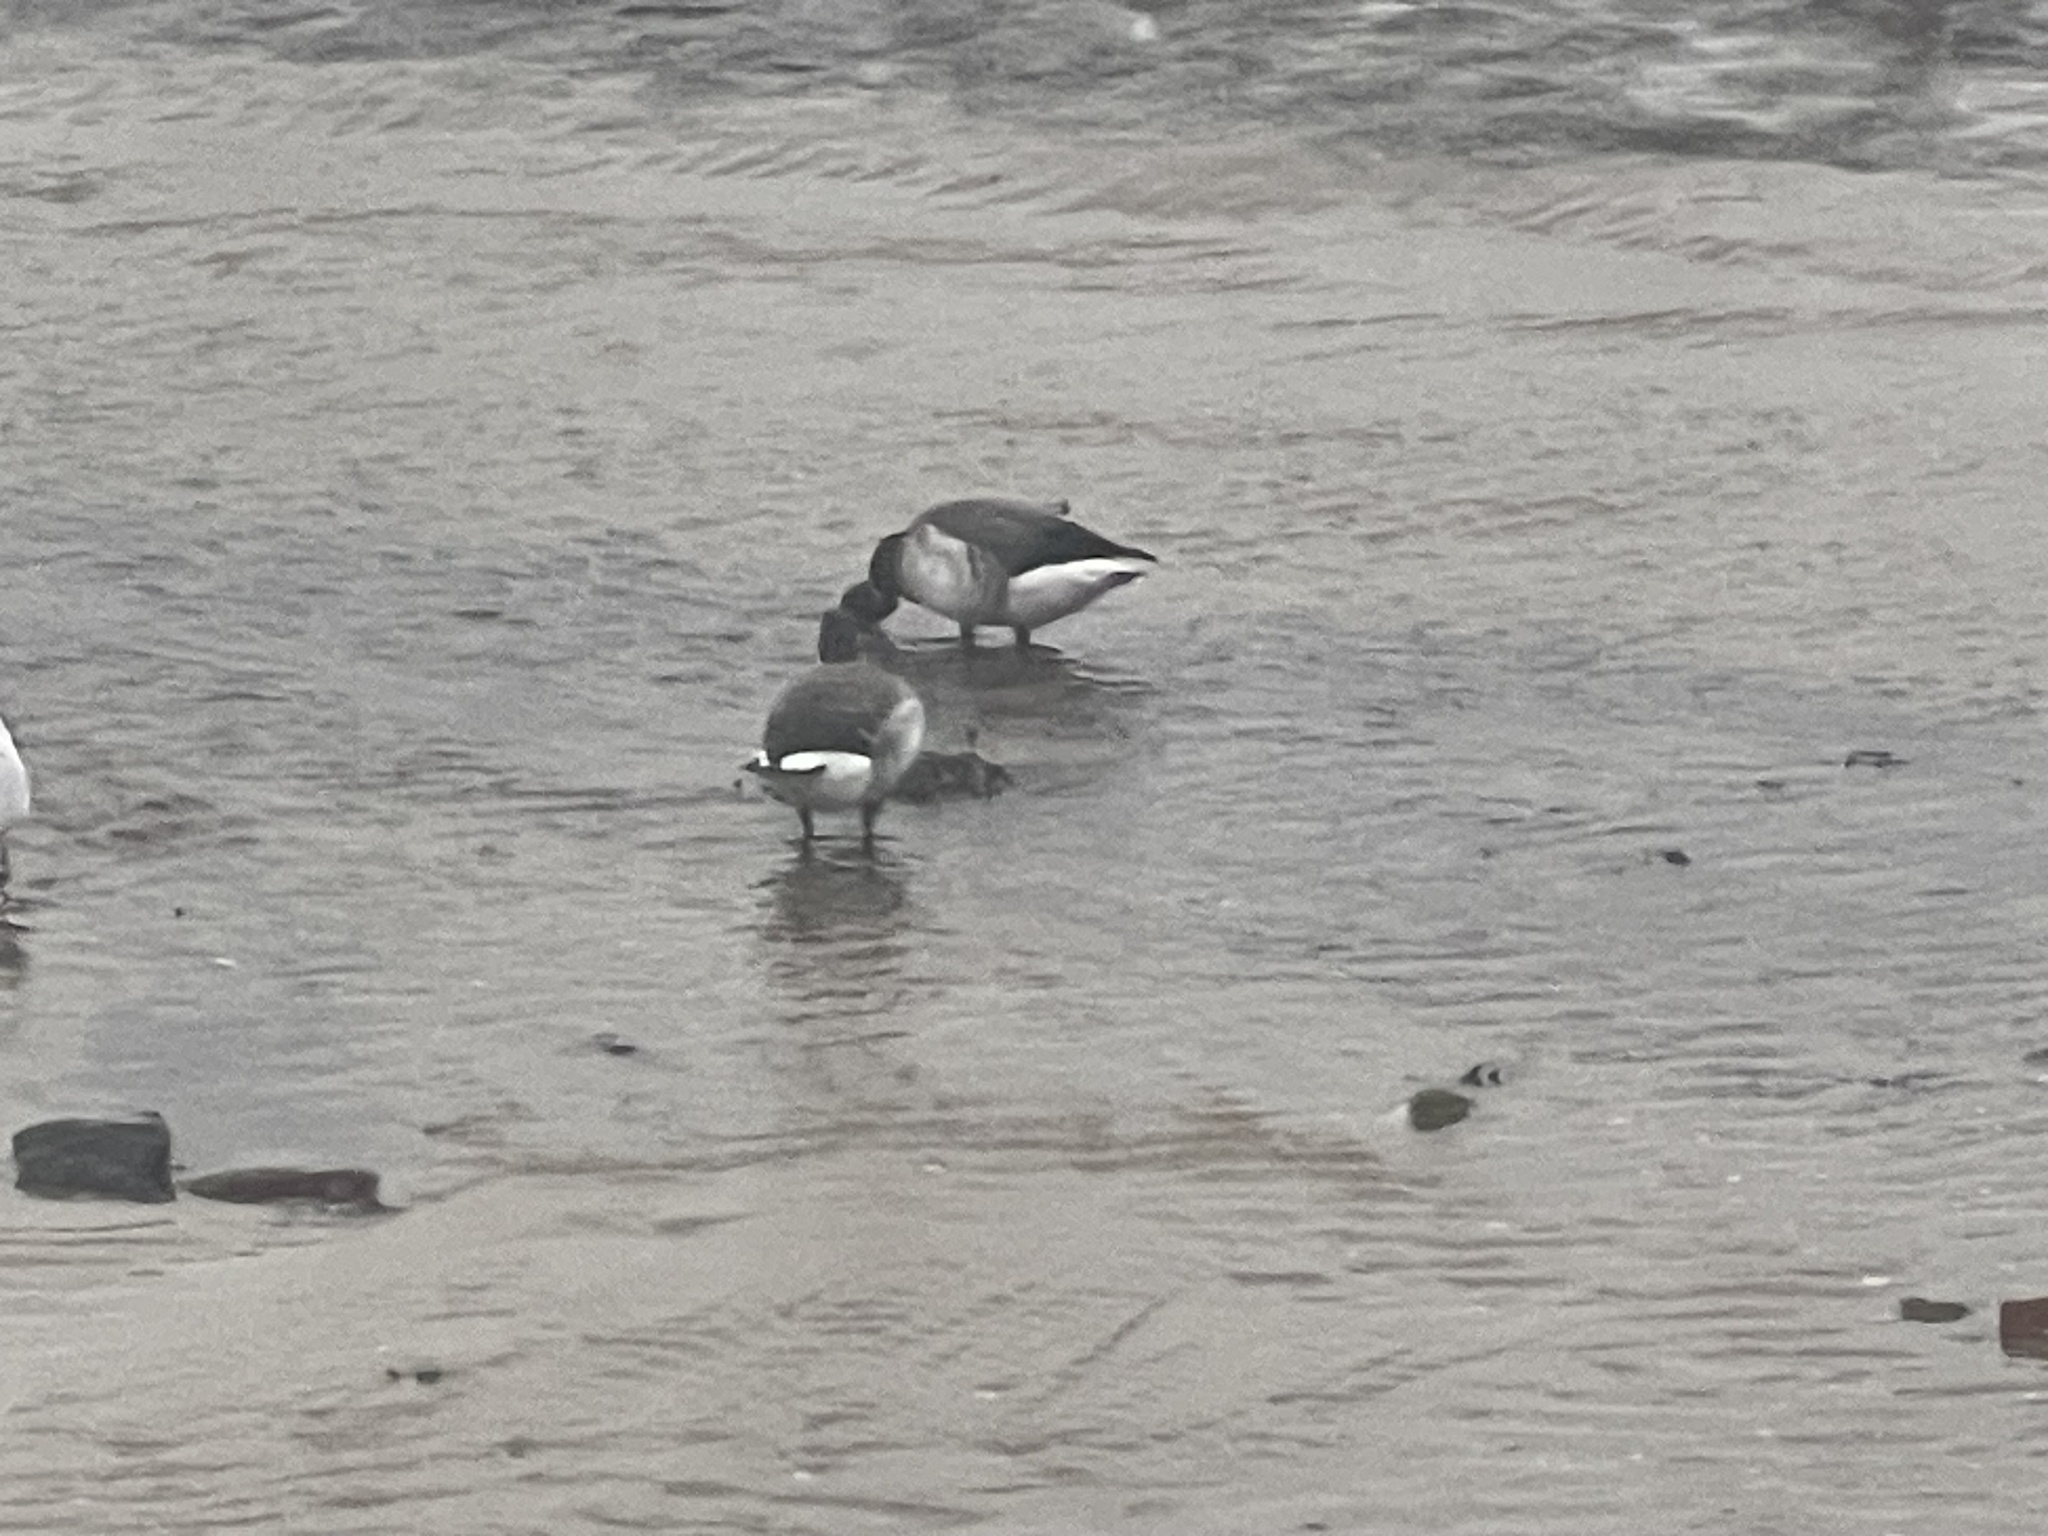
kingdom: Animalia
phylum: Chordata
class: Aves
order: Anseriformes
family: Anatidae
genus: Branta
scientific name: Branta bernicla
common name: Brant goose
